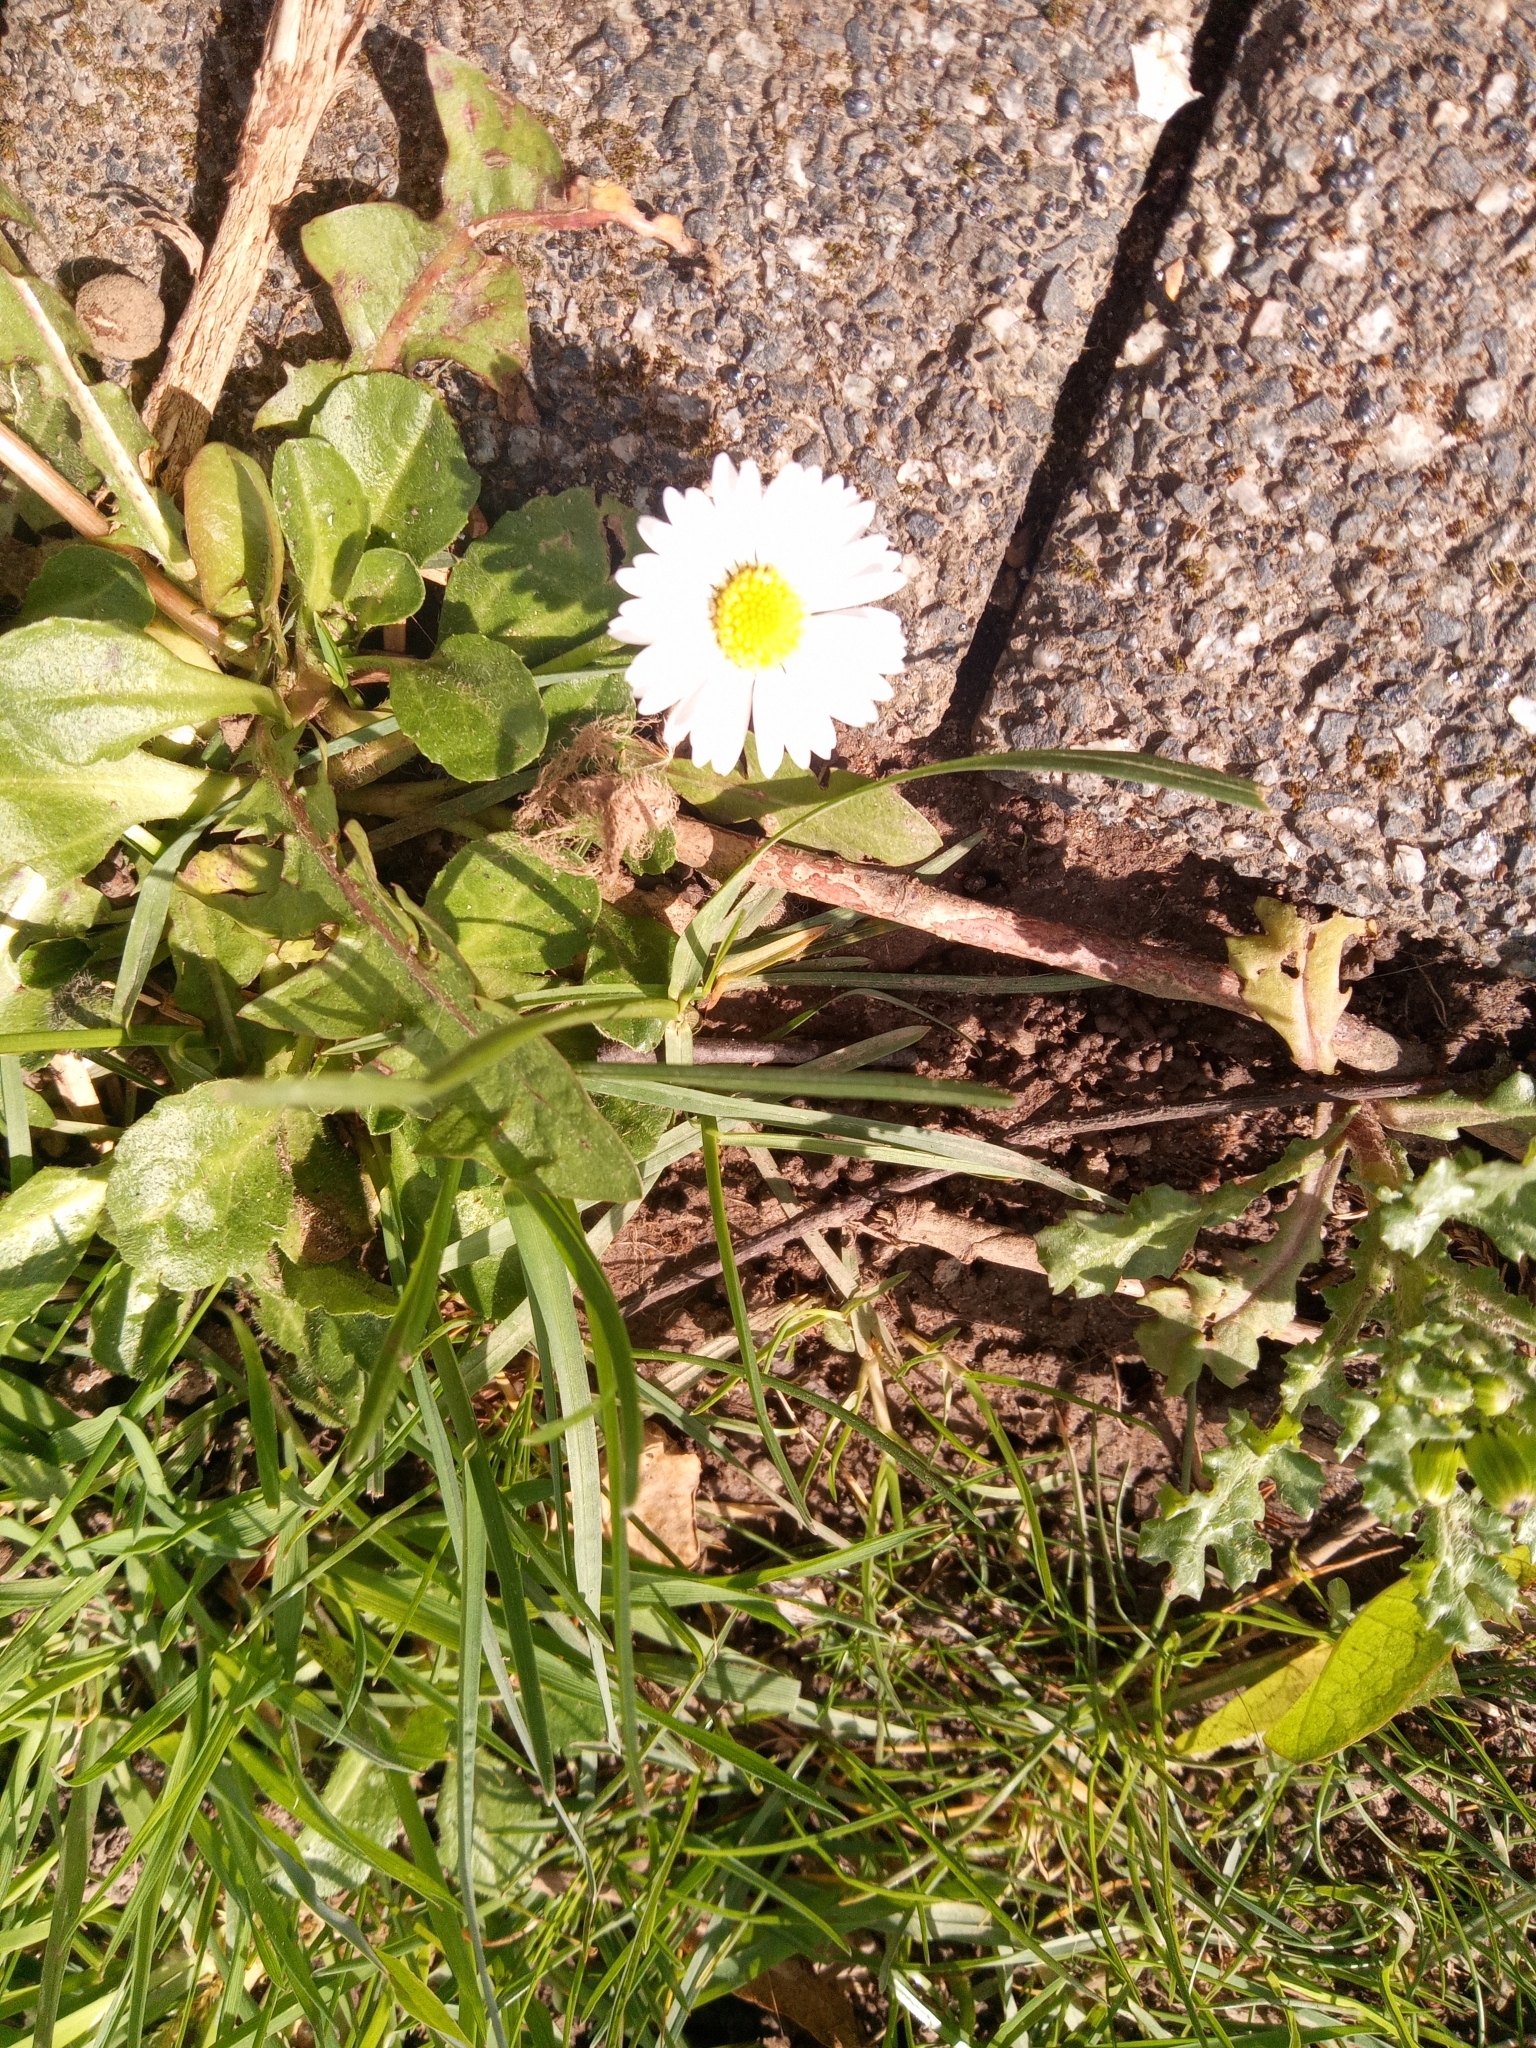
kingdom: Plantae
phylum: Tracheophyta
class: Magnoliopsida
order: Asterales
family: Asteraceae
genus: Bellis
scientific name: Bellis perennis
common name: Lawndaisy
